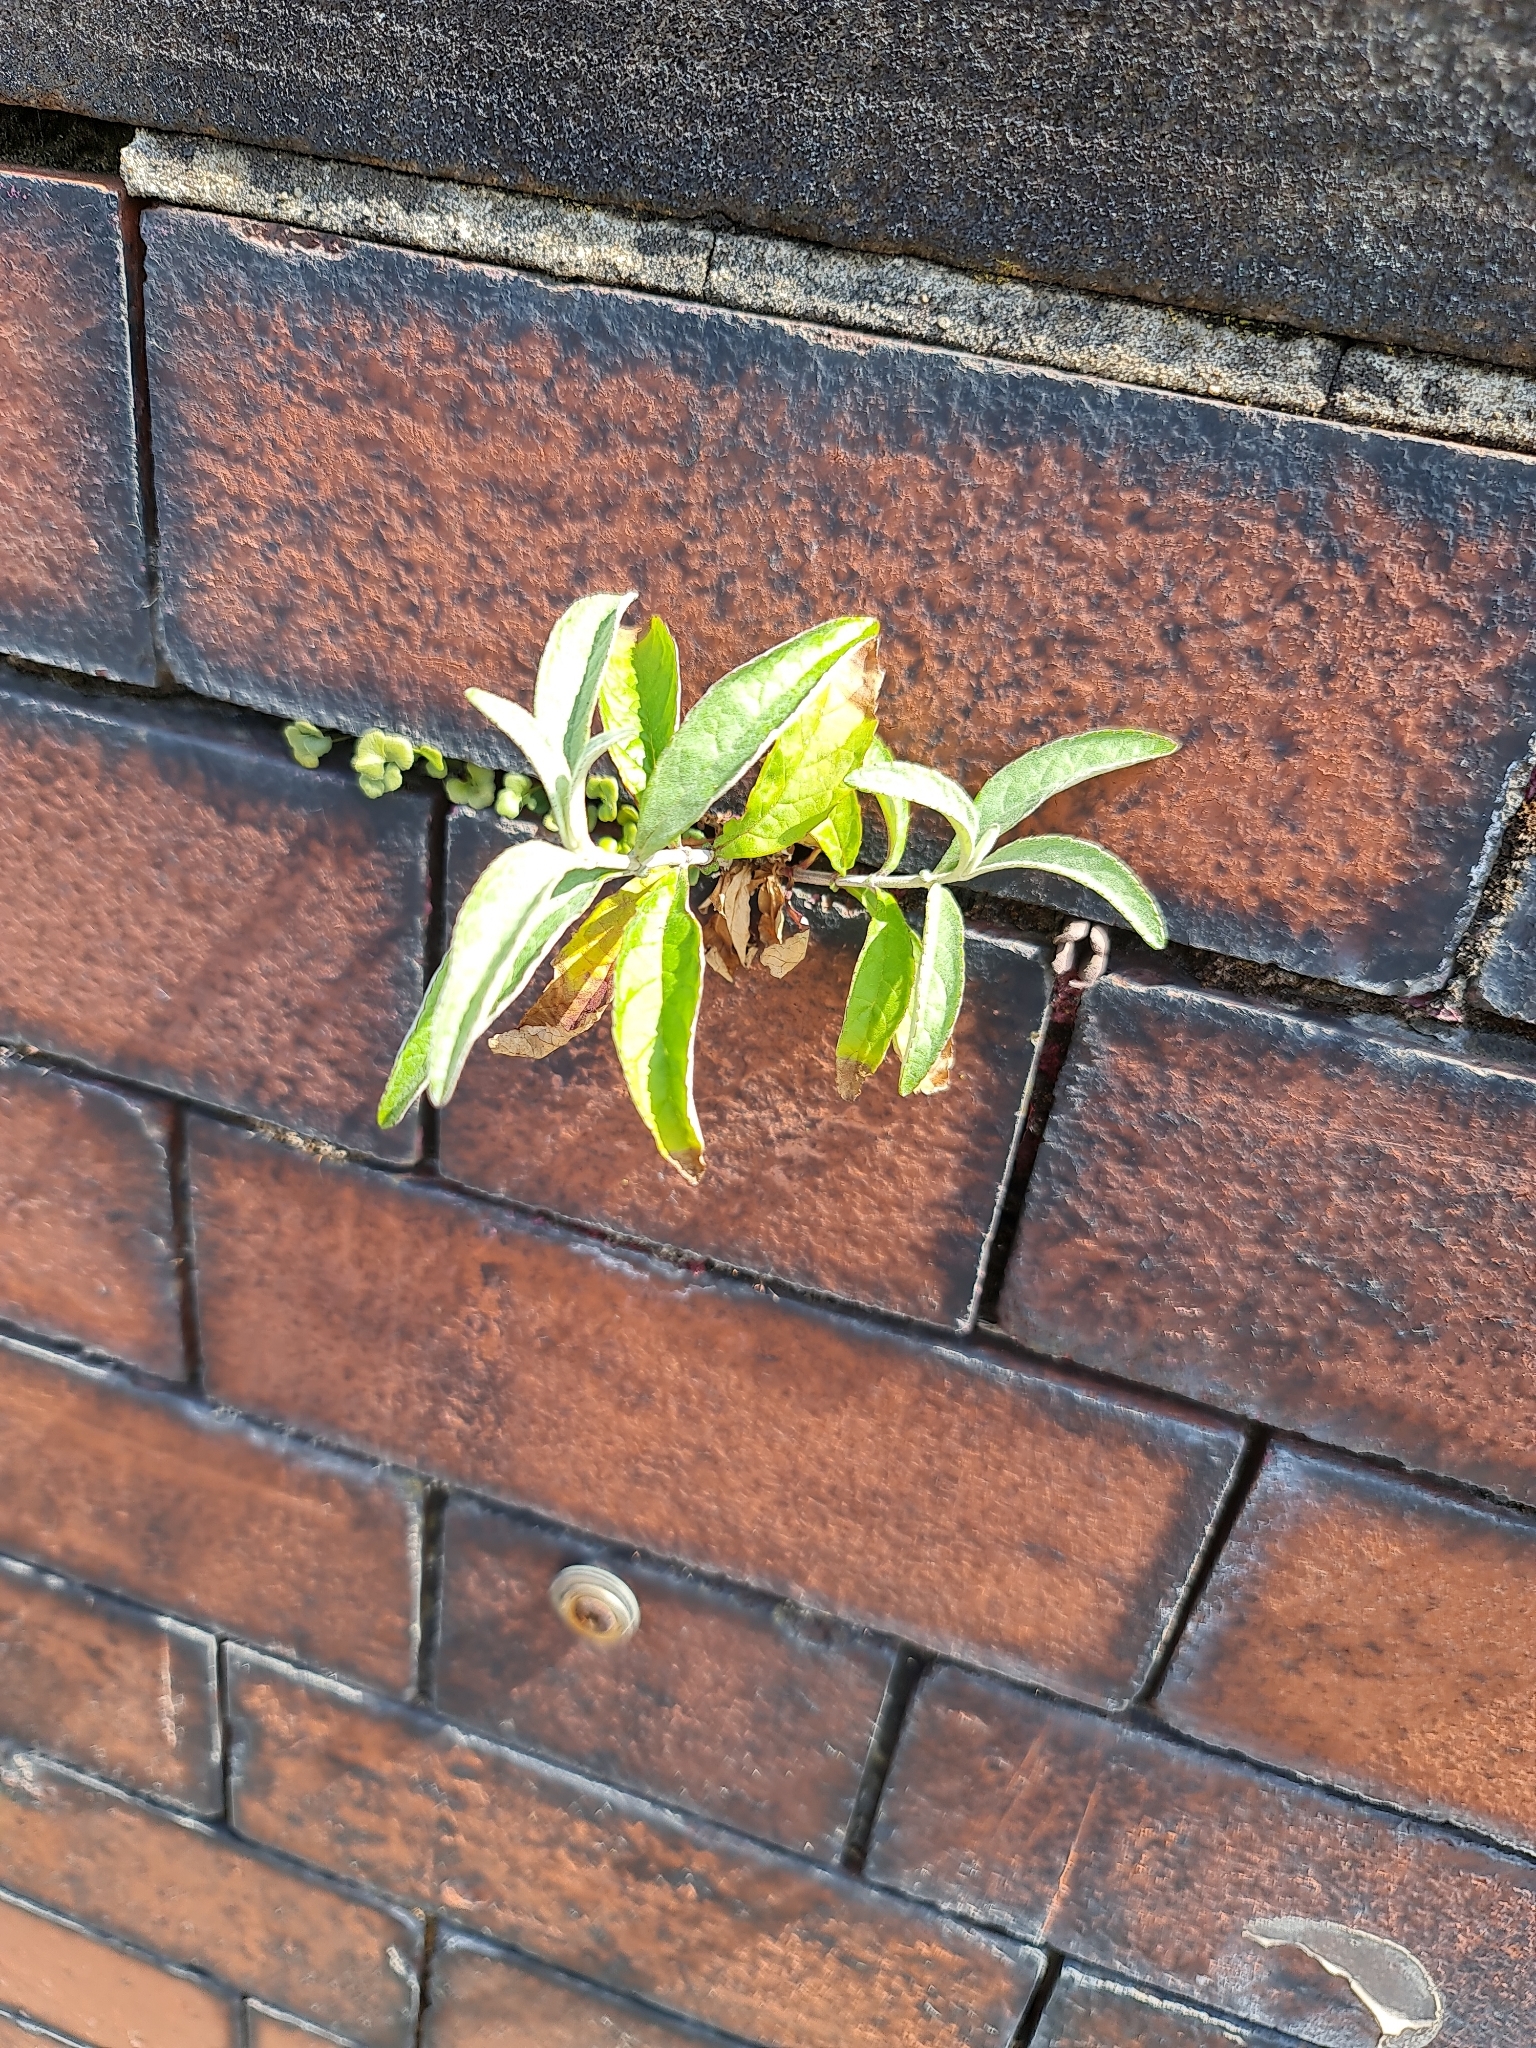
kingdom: Plantae
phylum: Tracheophyta
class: Magnoliopsida
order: Lamiales
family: Scrophulariaceae
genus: Buddleja
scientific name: Buddleja davidii
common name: Butterfly-bush
